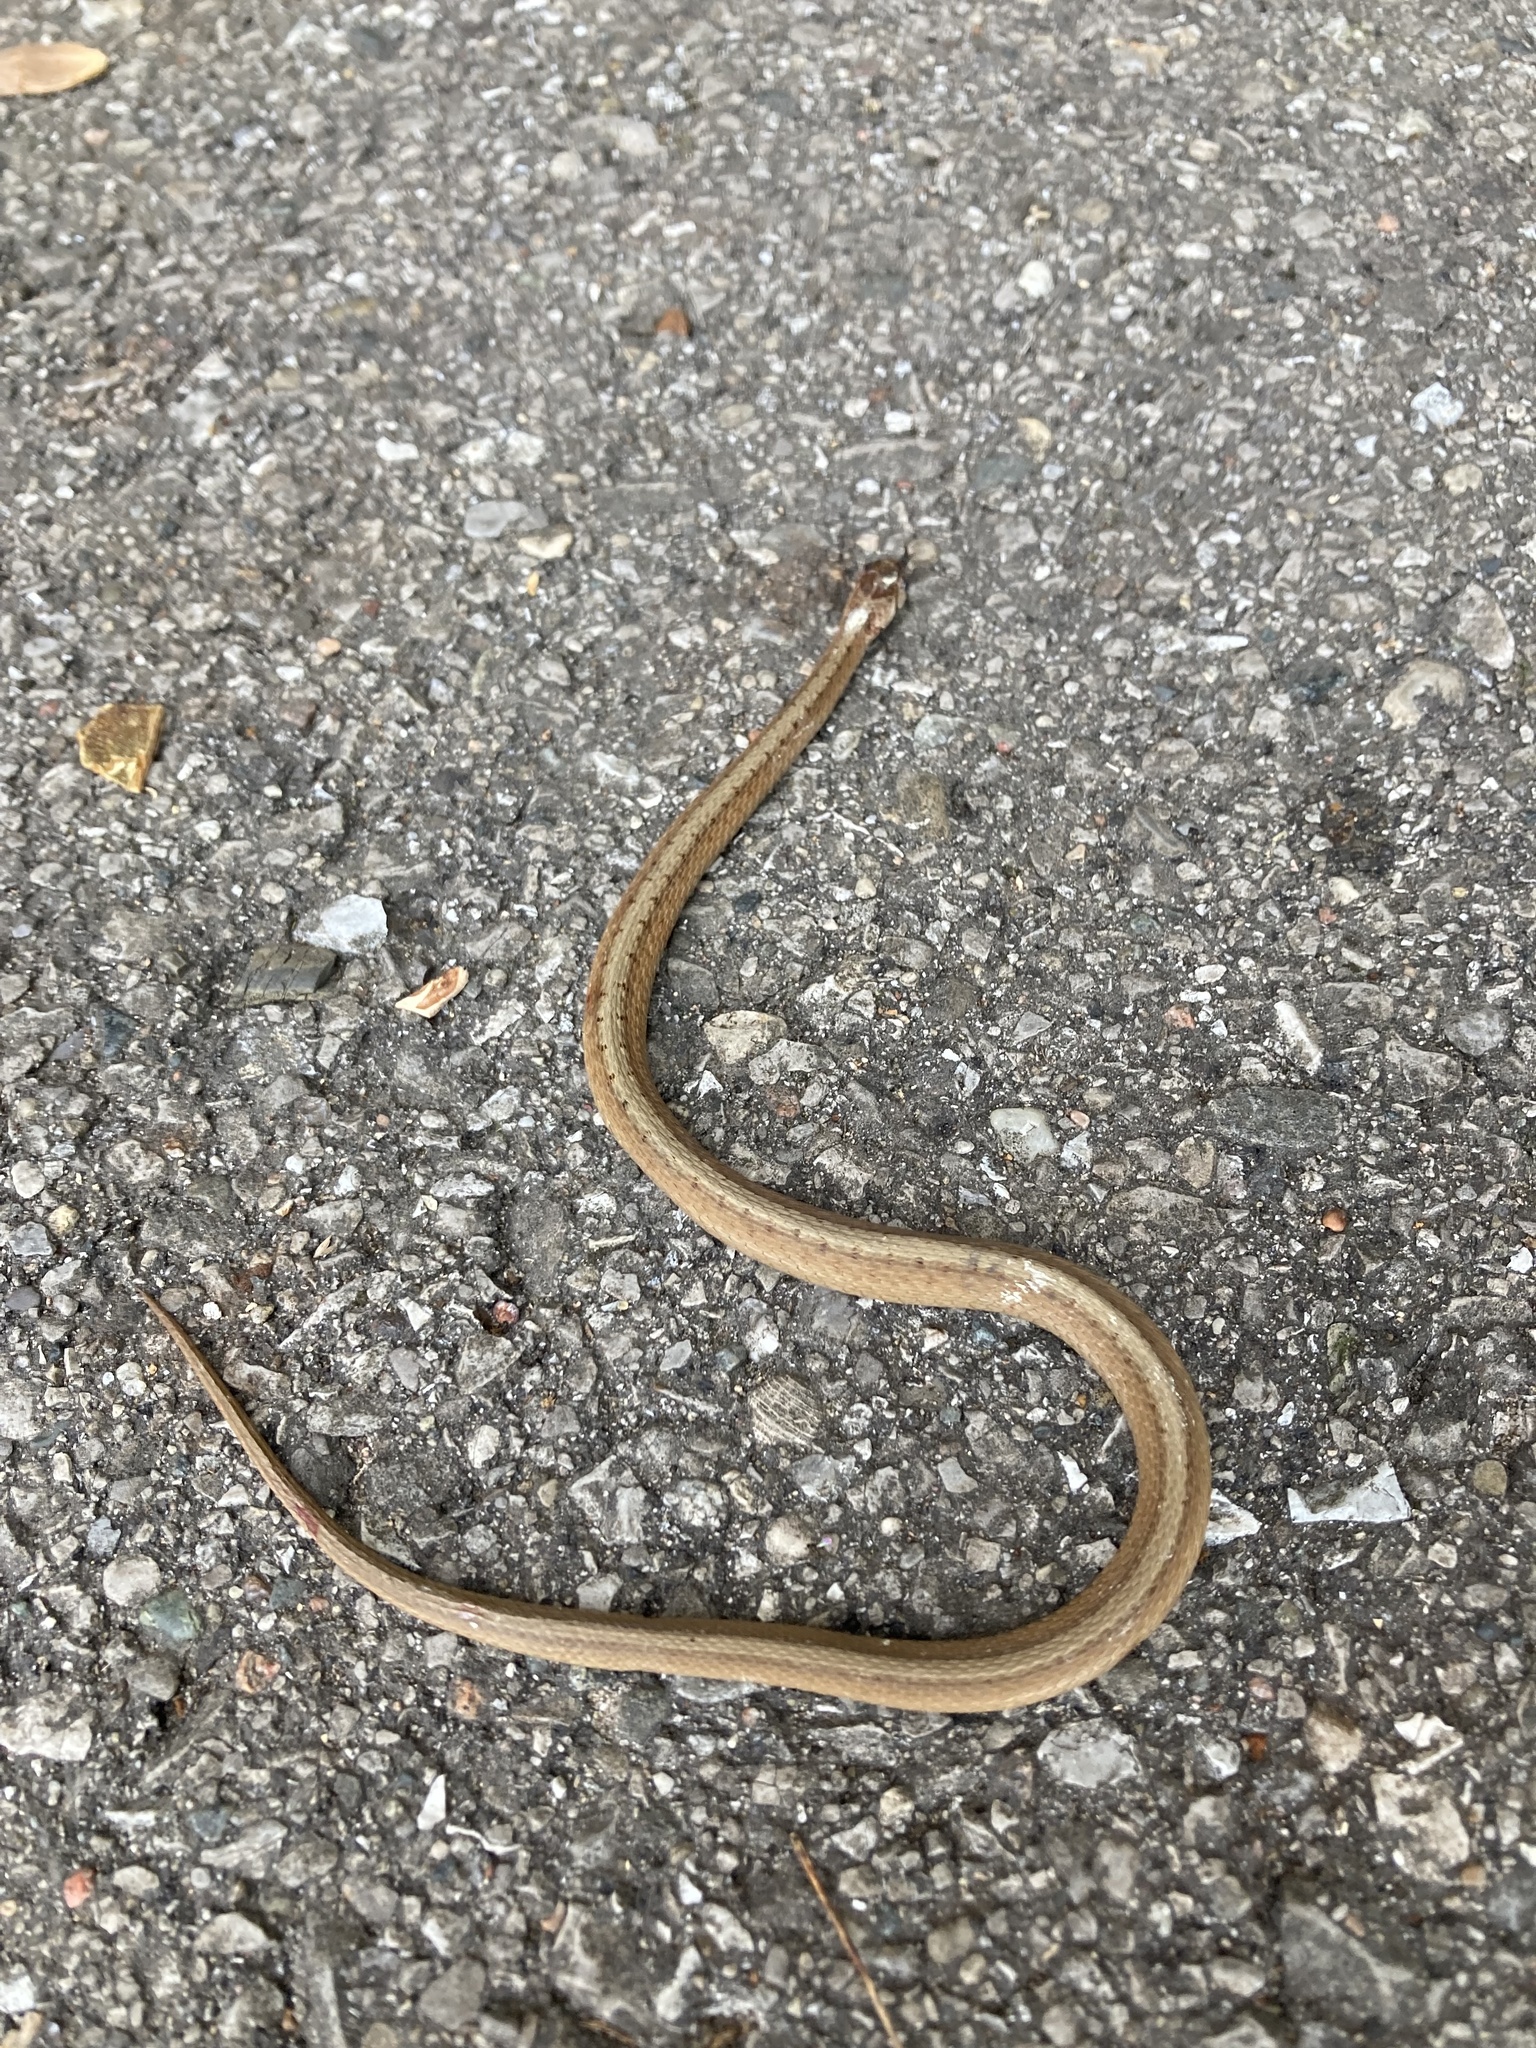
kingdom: Animalia
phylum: Chordata
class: Squamata
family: Colubridae
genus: Storeria
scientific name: Storeria dekayi
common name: (dekay’s) brown snake
